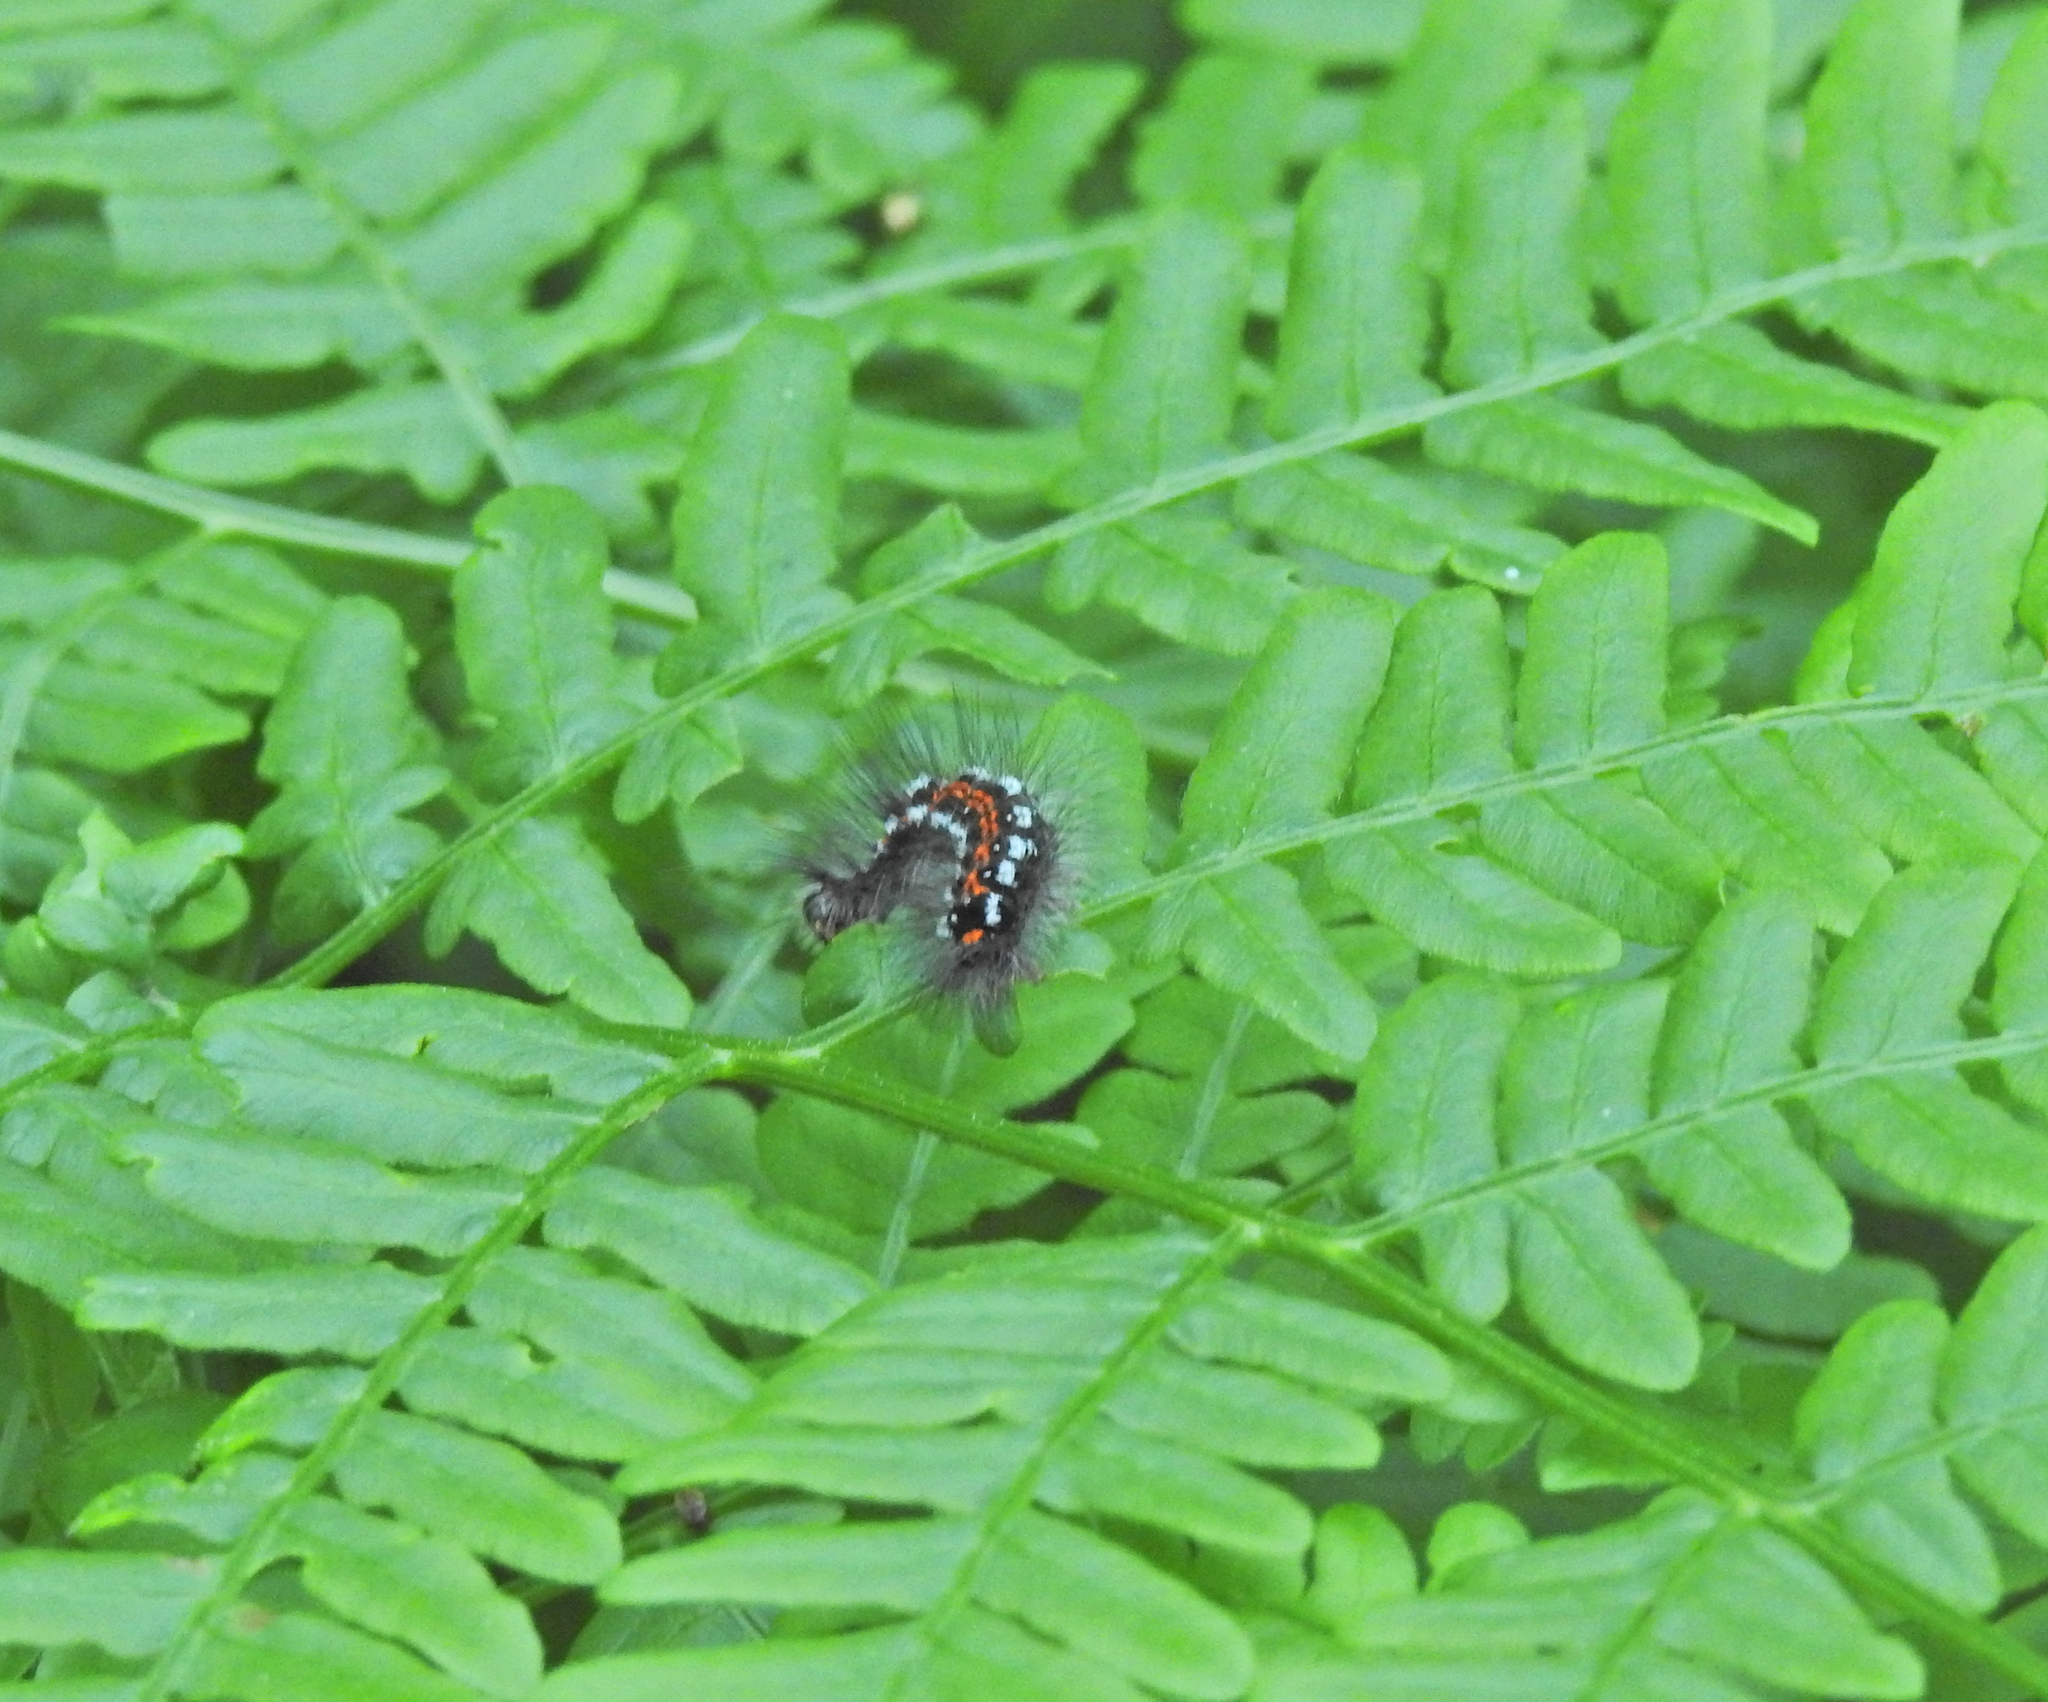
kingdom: Animalia
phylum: Arthropoda
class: Insecta
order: Lepidoptera
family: Erebidae
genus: Sphrageidus
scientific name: Sphrageidus similis
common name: Yellow-tail
